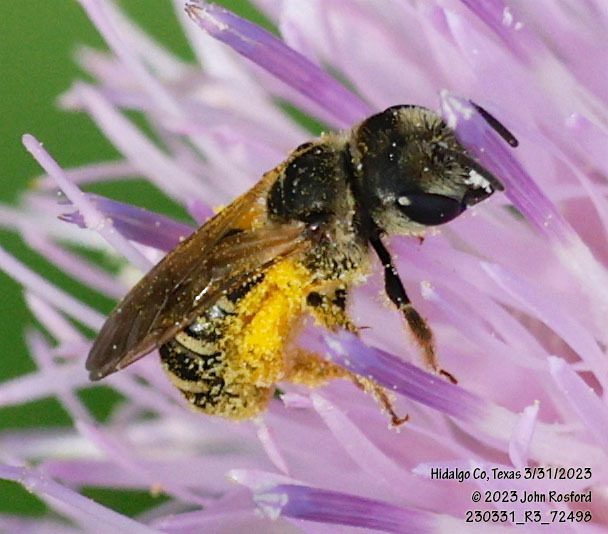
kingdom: Animalia
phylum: Arthropoda
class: Insecta
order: Hymenoptera
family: Halictidae
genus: Halictus
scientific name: Halictus ligatus
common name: Ligated furrow bee
